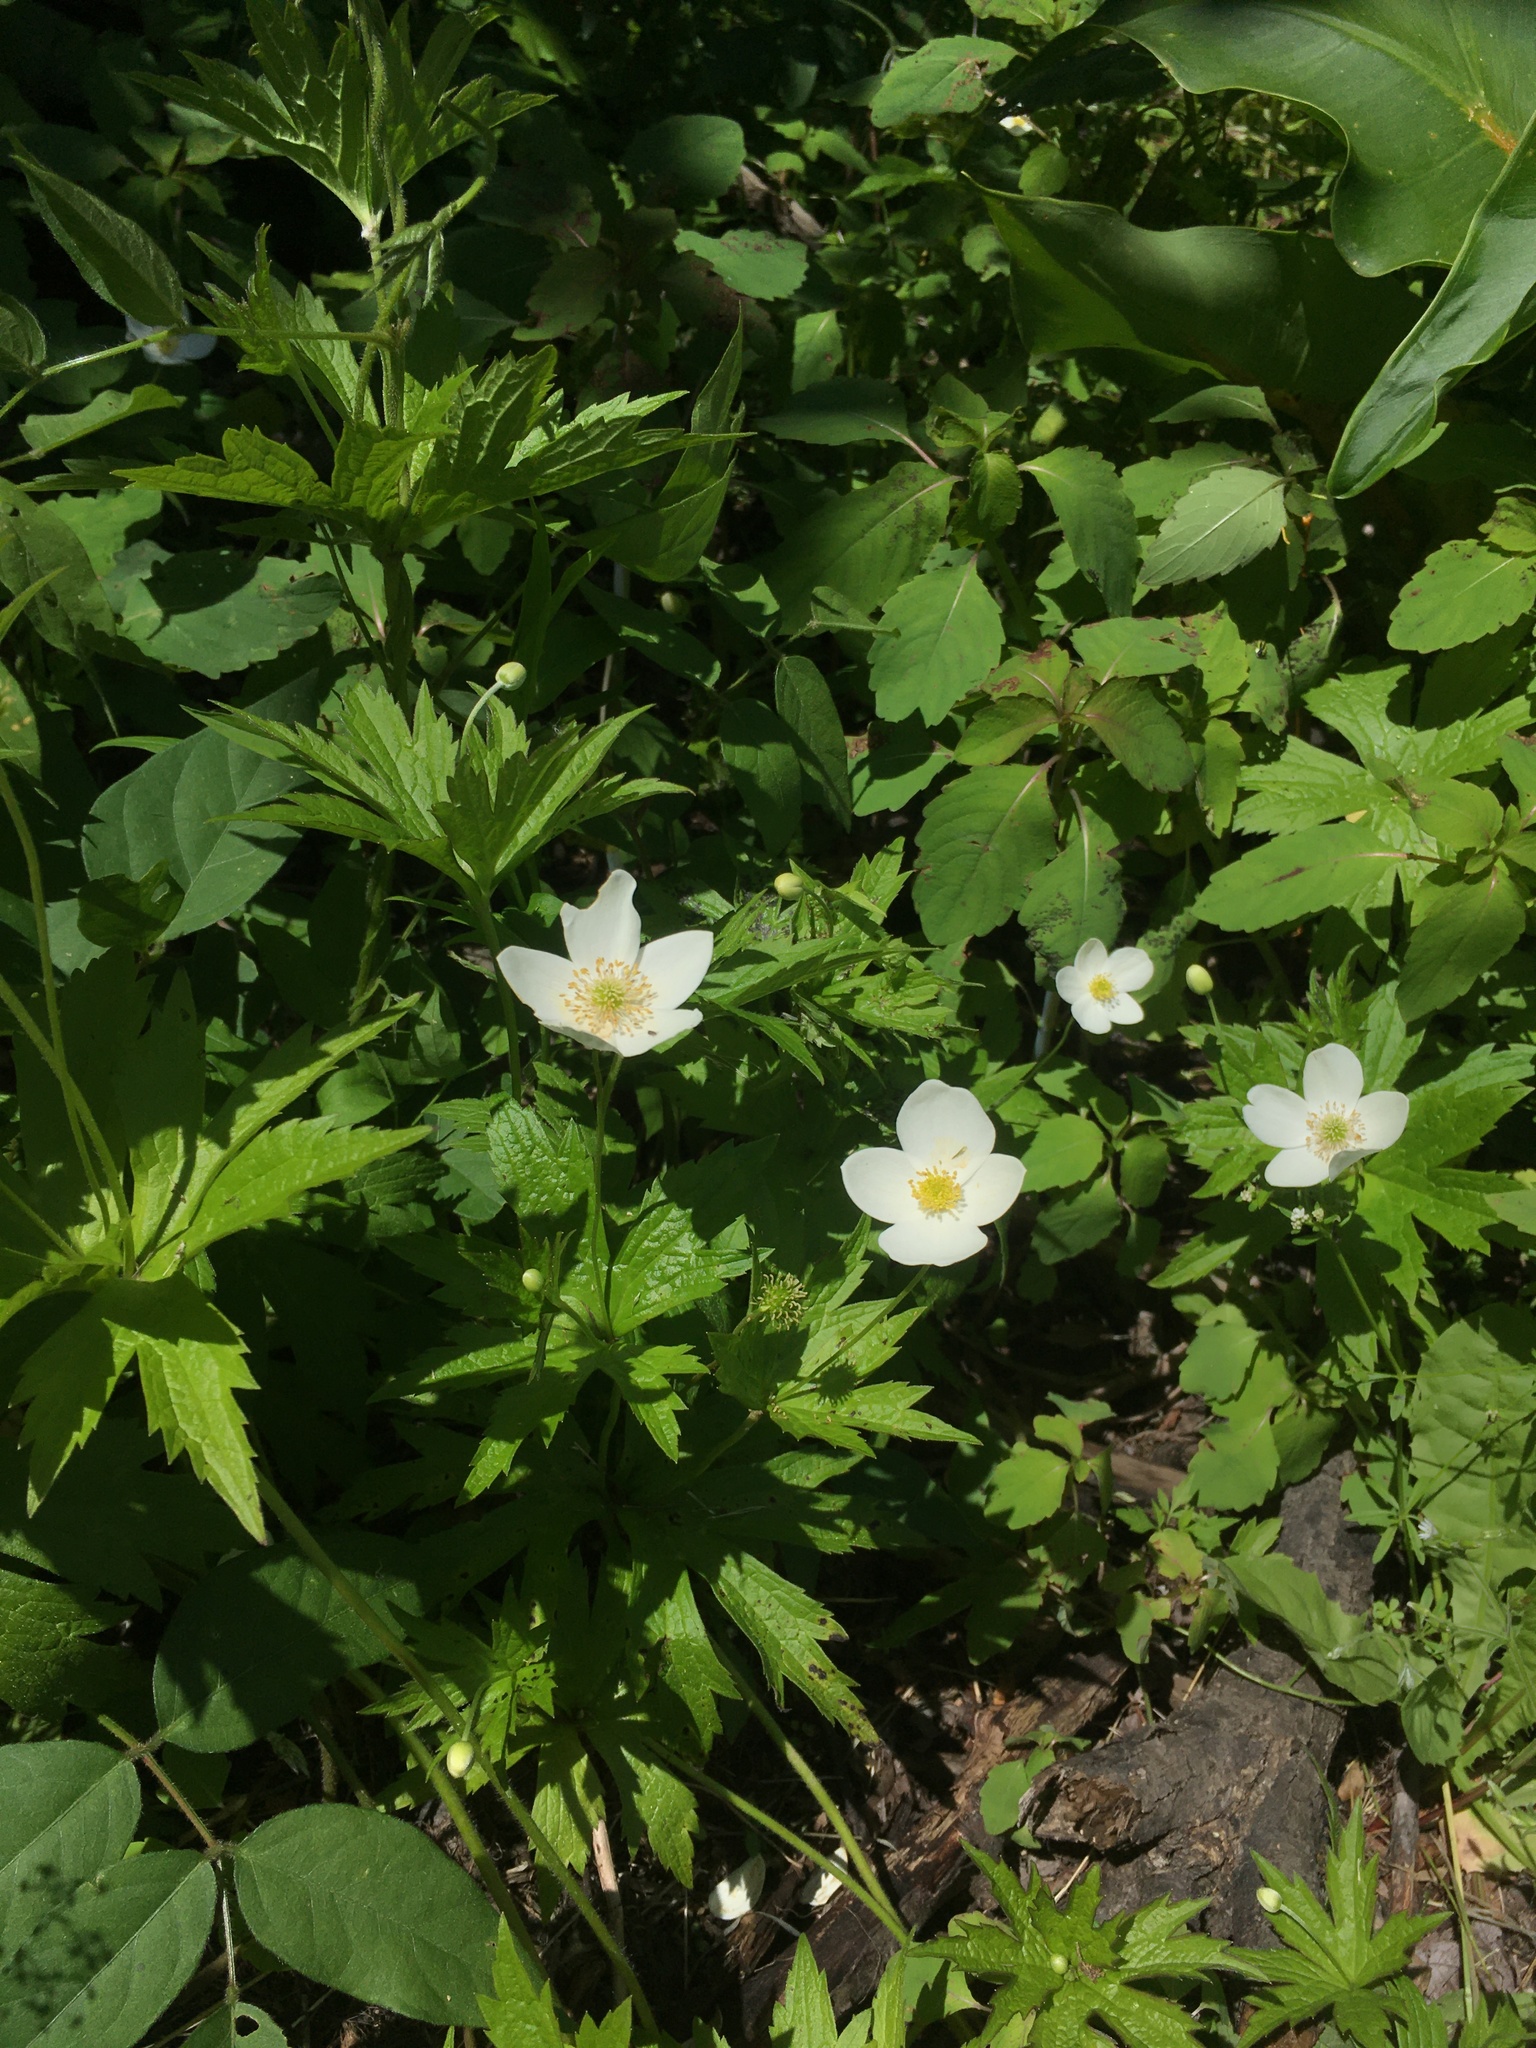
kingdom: Plantae
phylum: Tracheophyta
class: Magnoliopsida
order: Ranunculales
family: Ranunculaceae
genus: Anemonastrum
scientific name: Anemonastrum canadense
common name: Canada anemone
